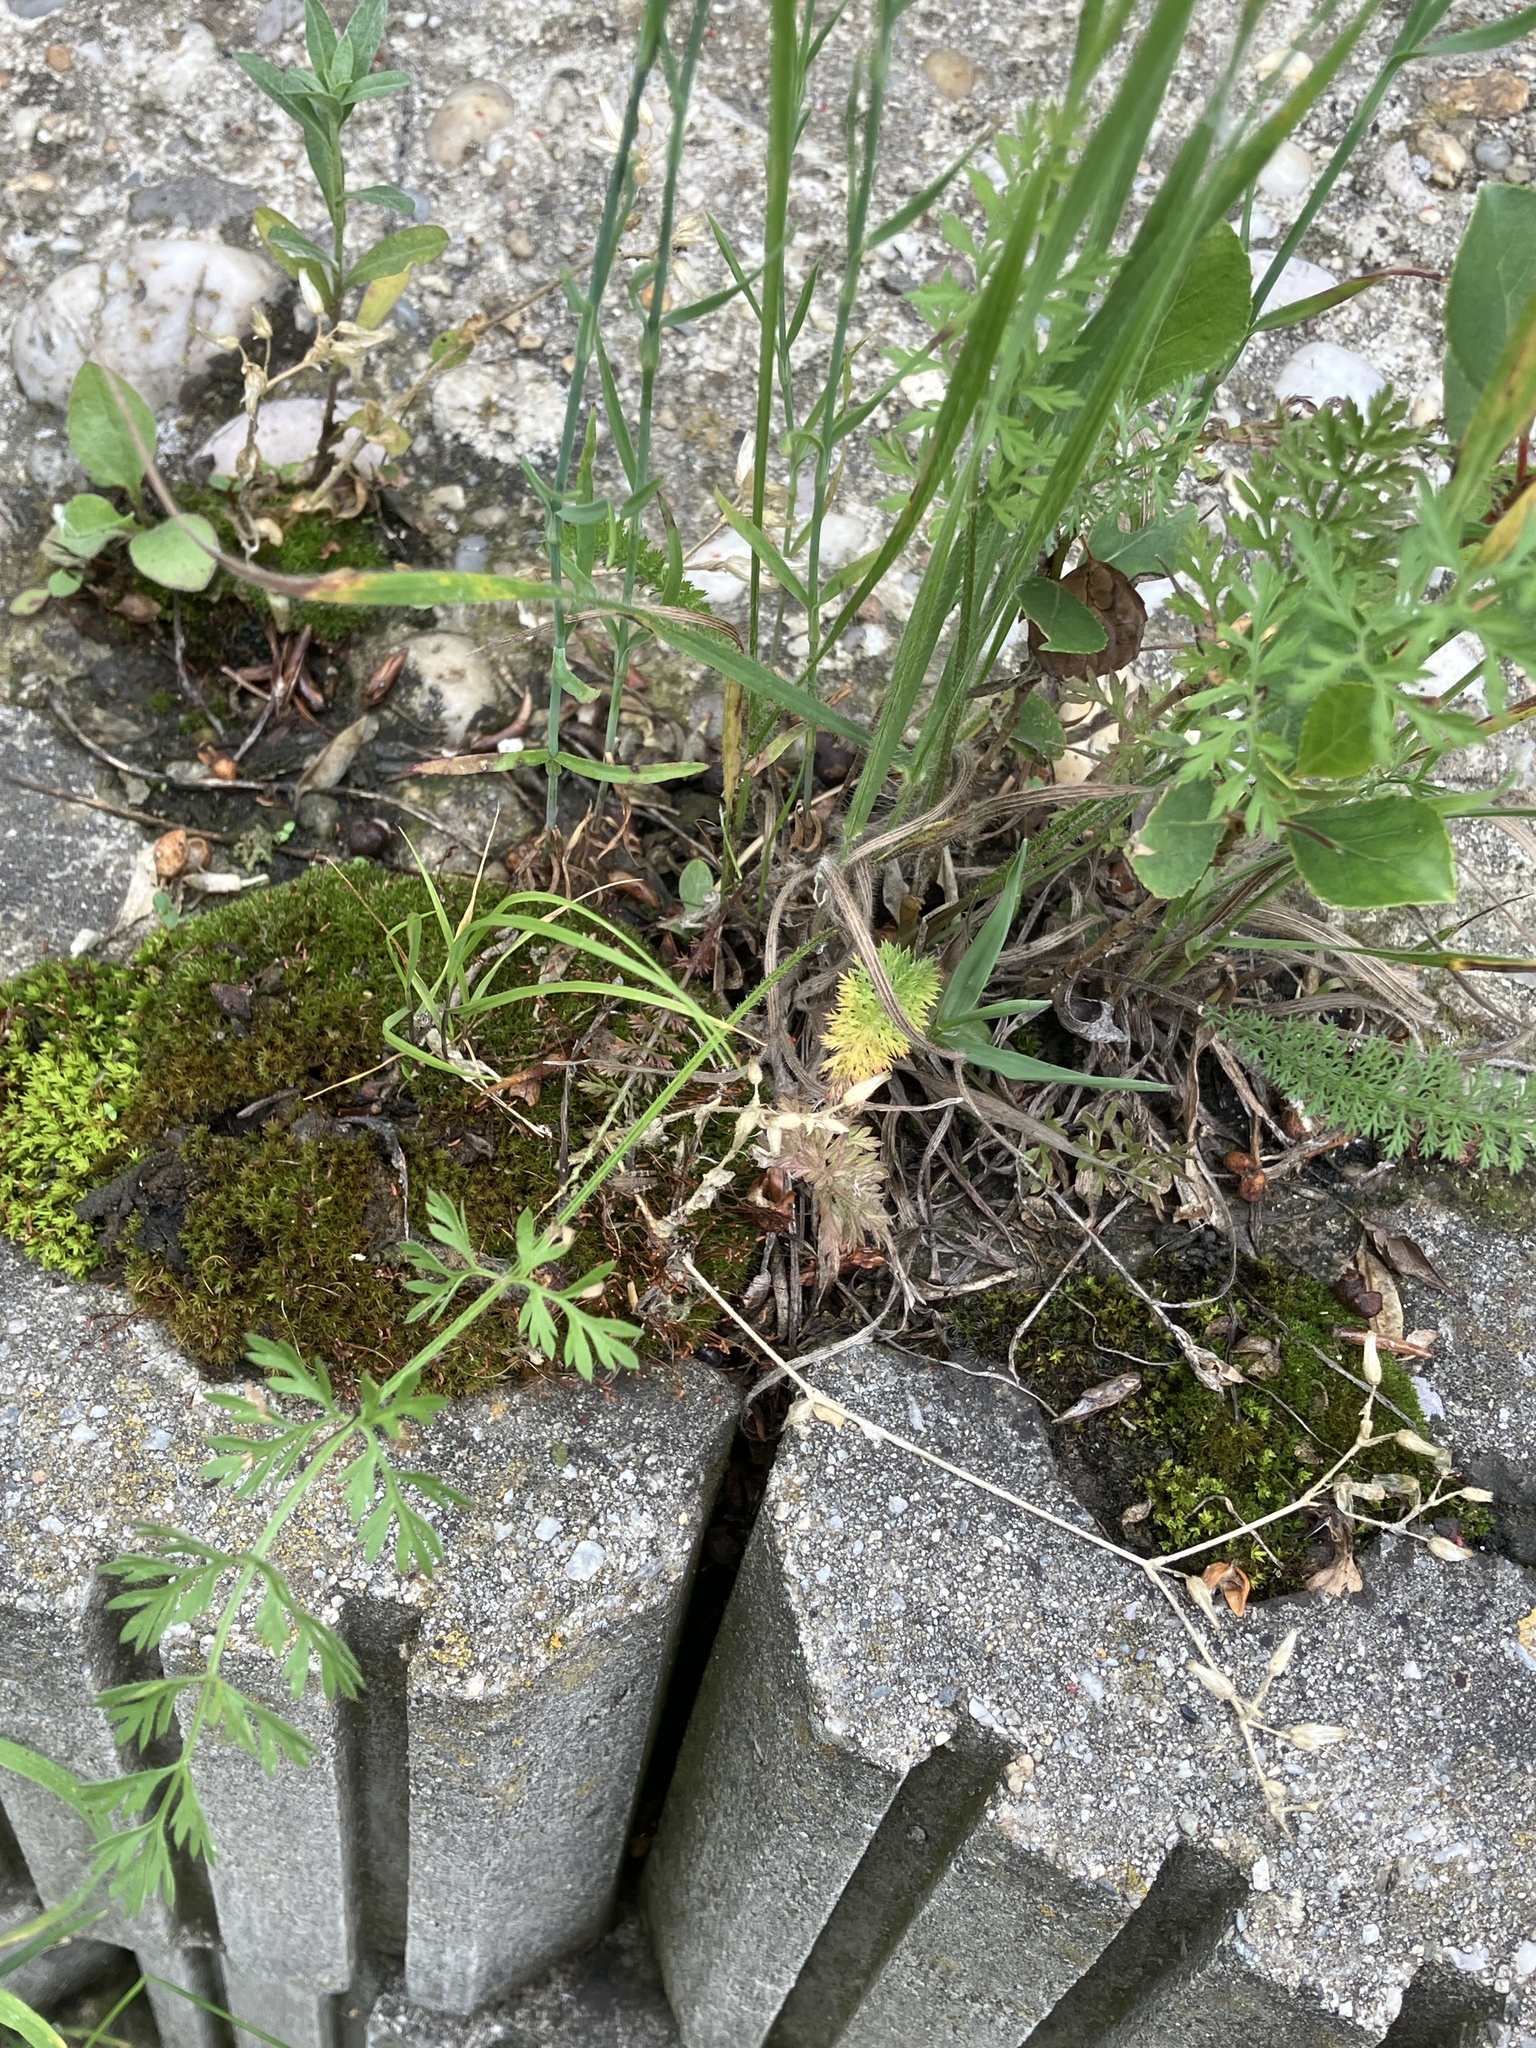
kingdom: Plantae
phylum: Tracheophyta
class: Magnoliopsida
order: Apiales
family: Apiaceae
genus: Daucus
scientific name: Daucus carota
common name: Wild carrot
